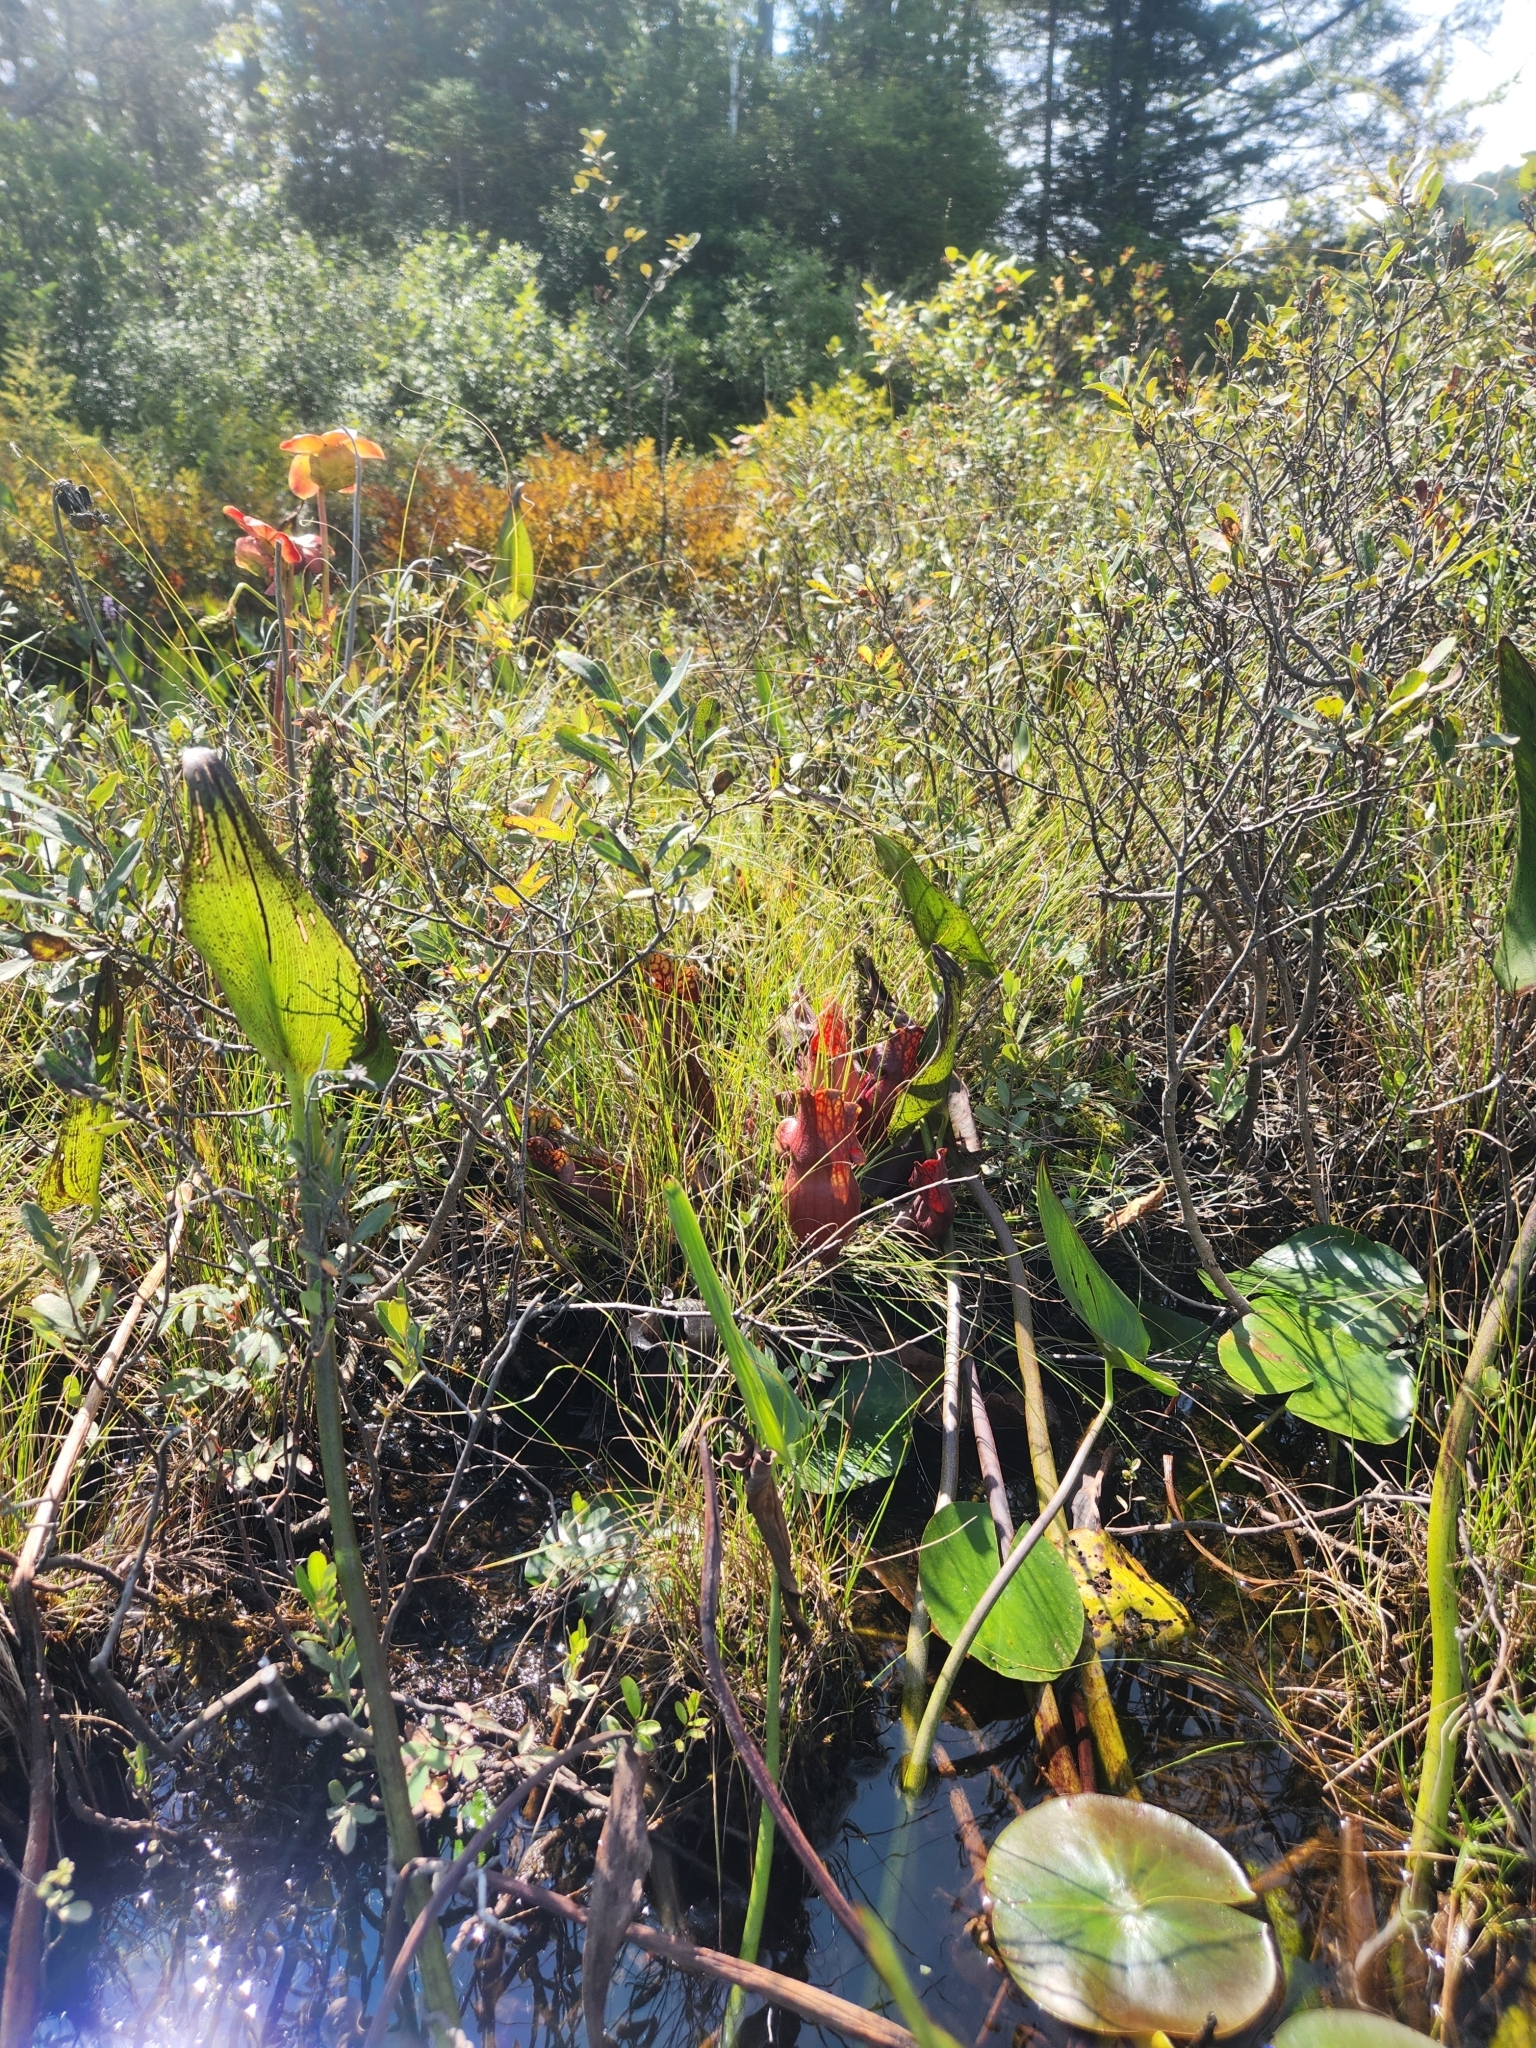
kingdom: Plantae
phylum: Tracheophyta
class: Magnoliopsida
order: Ericales
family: Sarraceniaceae
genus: Sarracenia
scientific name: Sarracenia purpurea
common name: Pitcherplant
